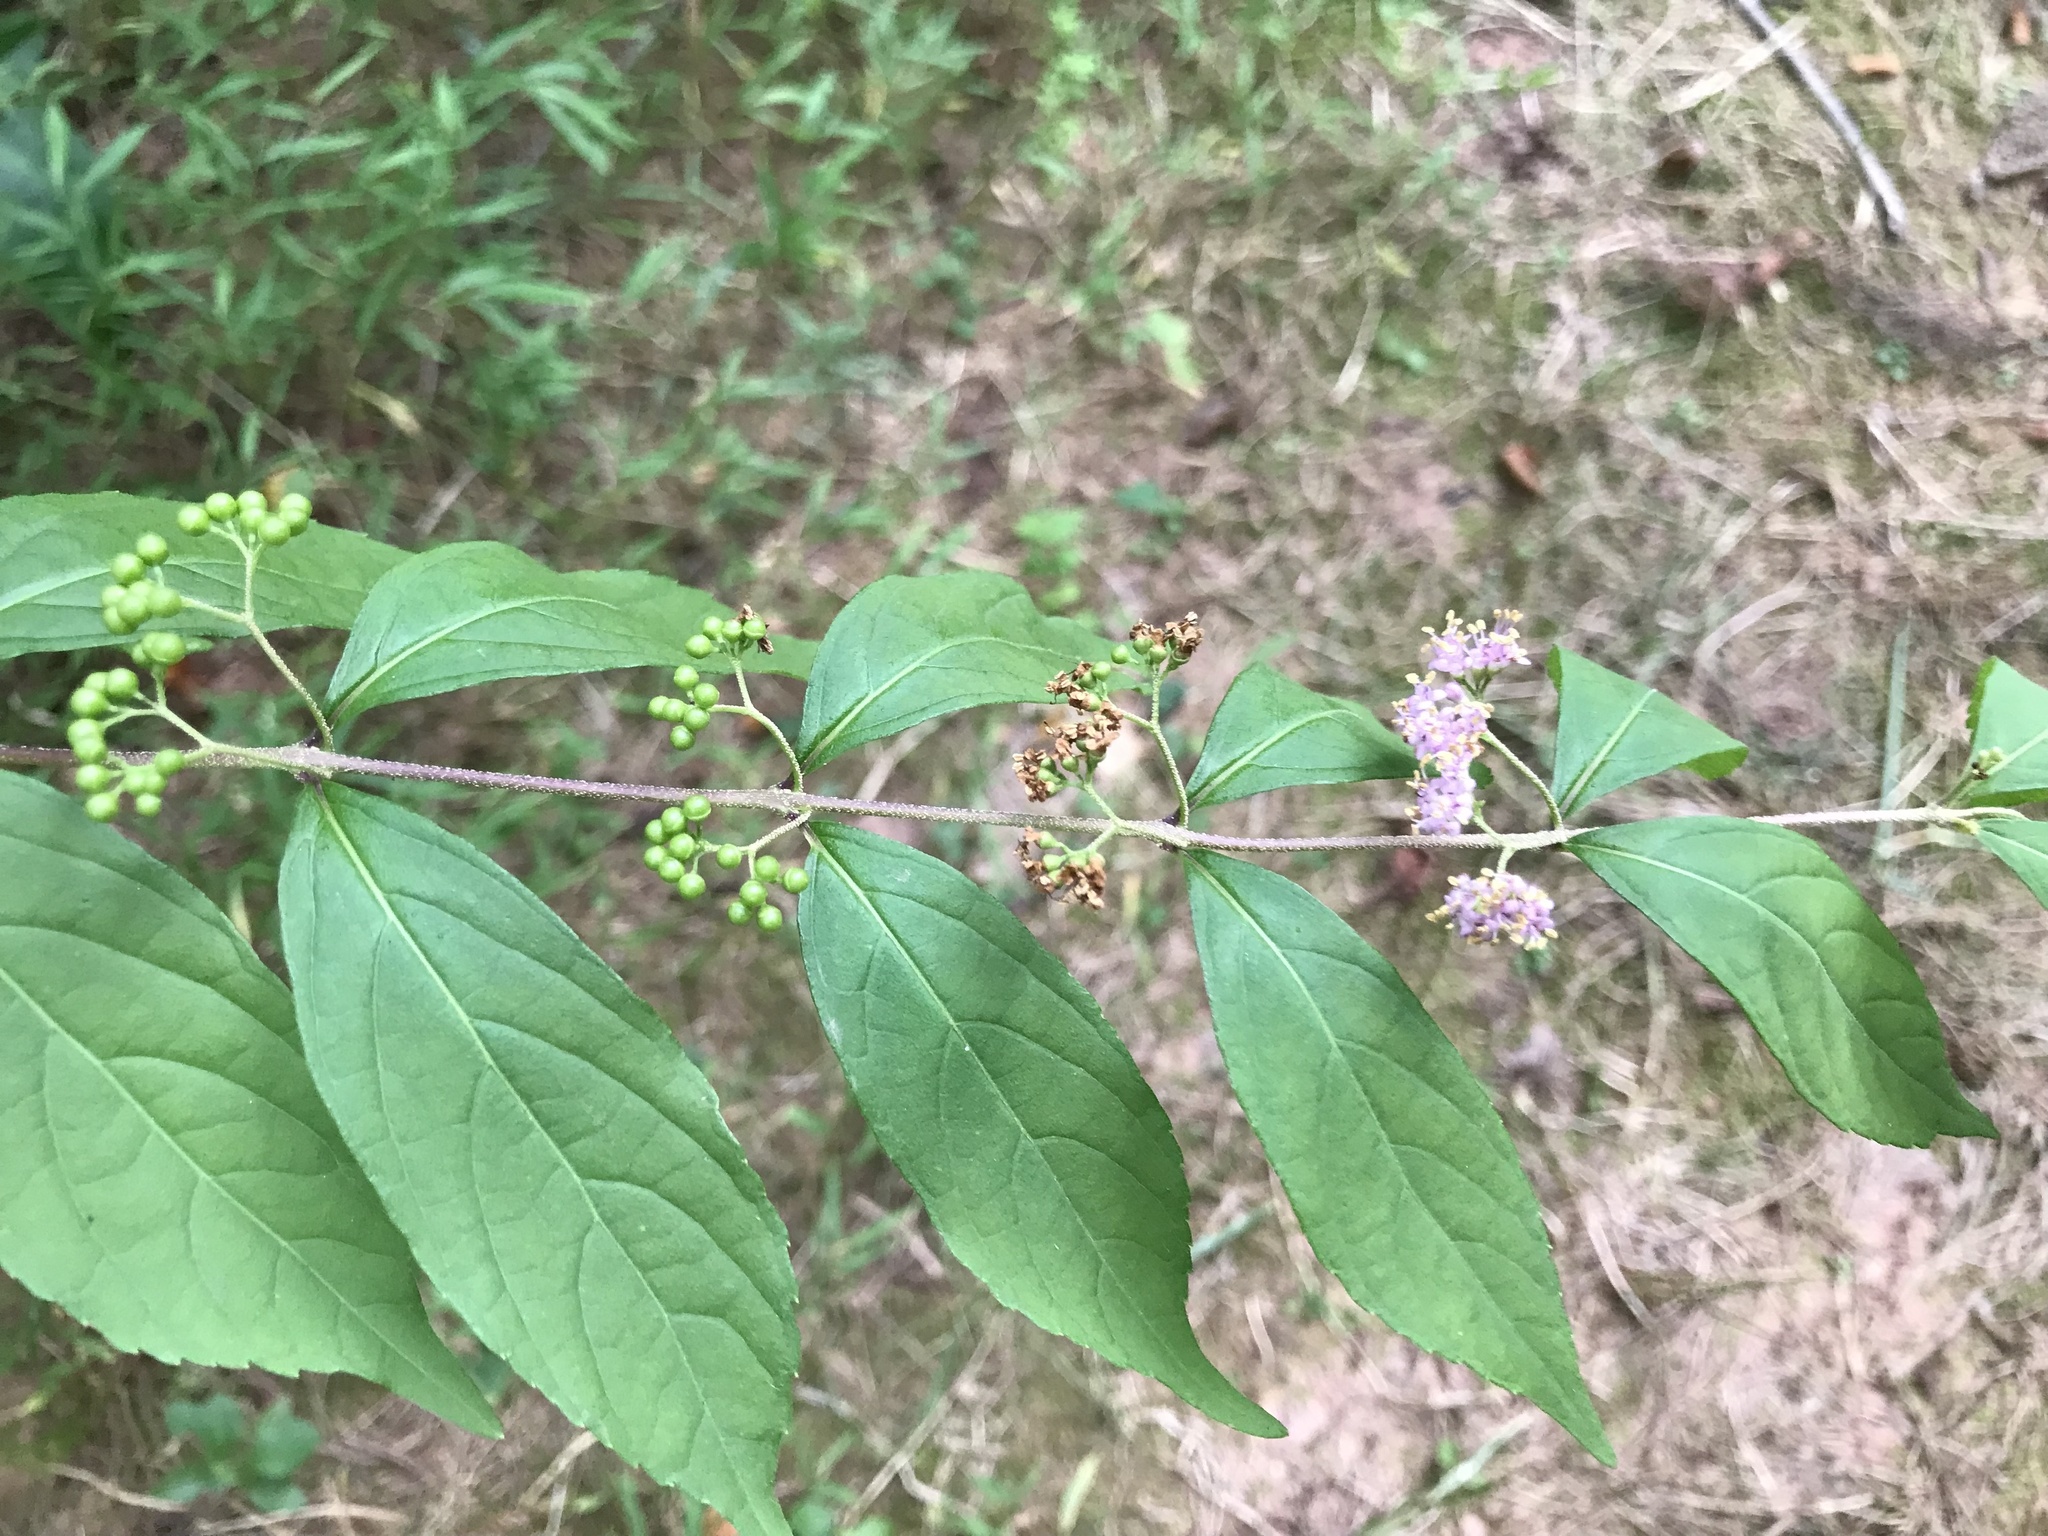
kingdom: Plantae
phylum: Tracheophyta
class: Magnoliopsida
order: Lamiales
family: Lamiaceae
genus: Callicarpa
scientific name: Callicarpa dichotoma
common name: Purple beauty-berry
